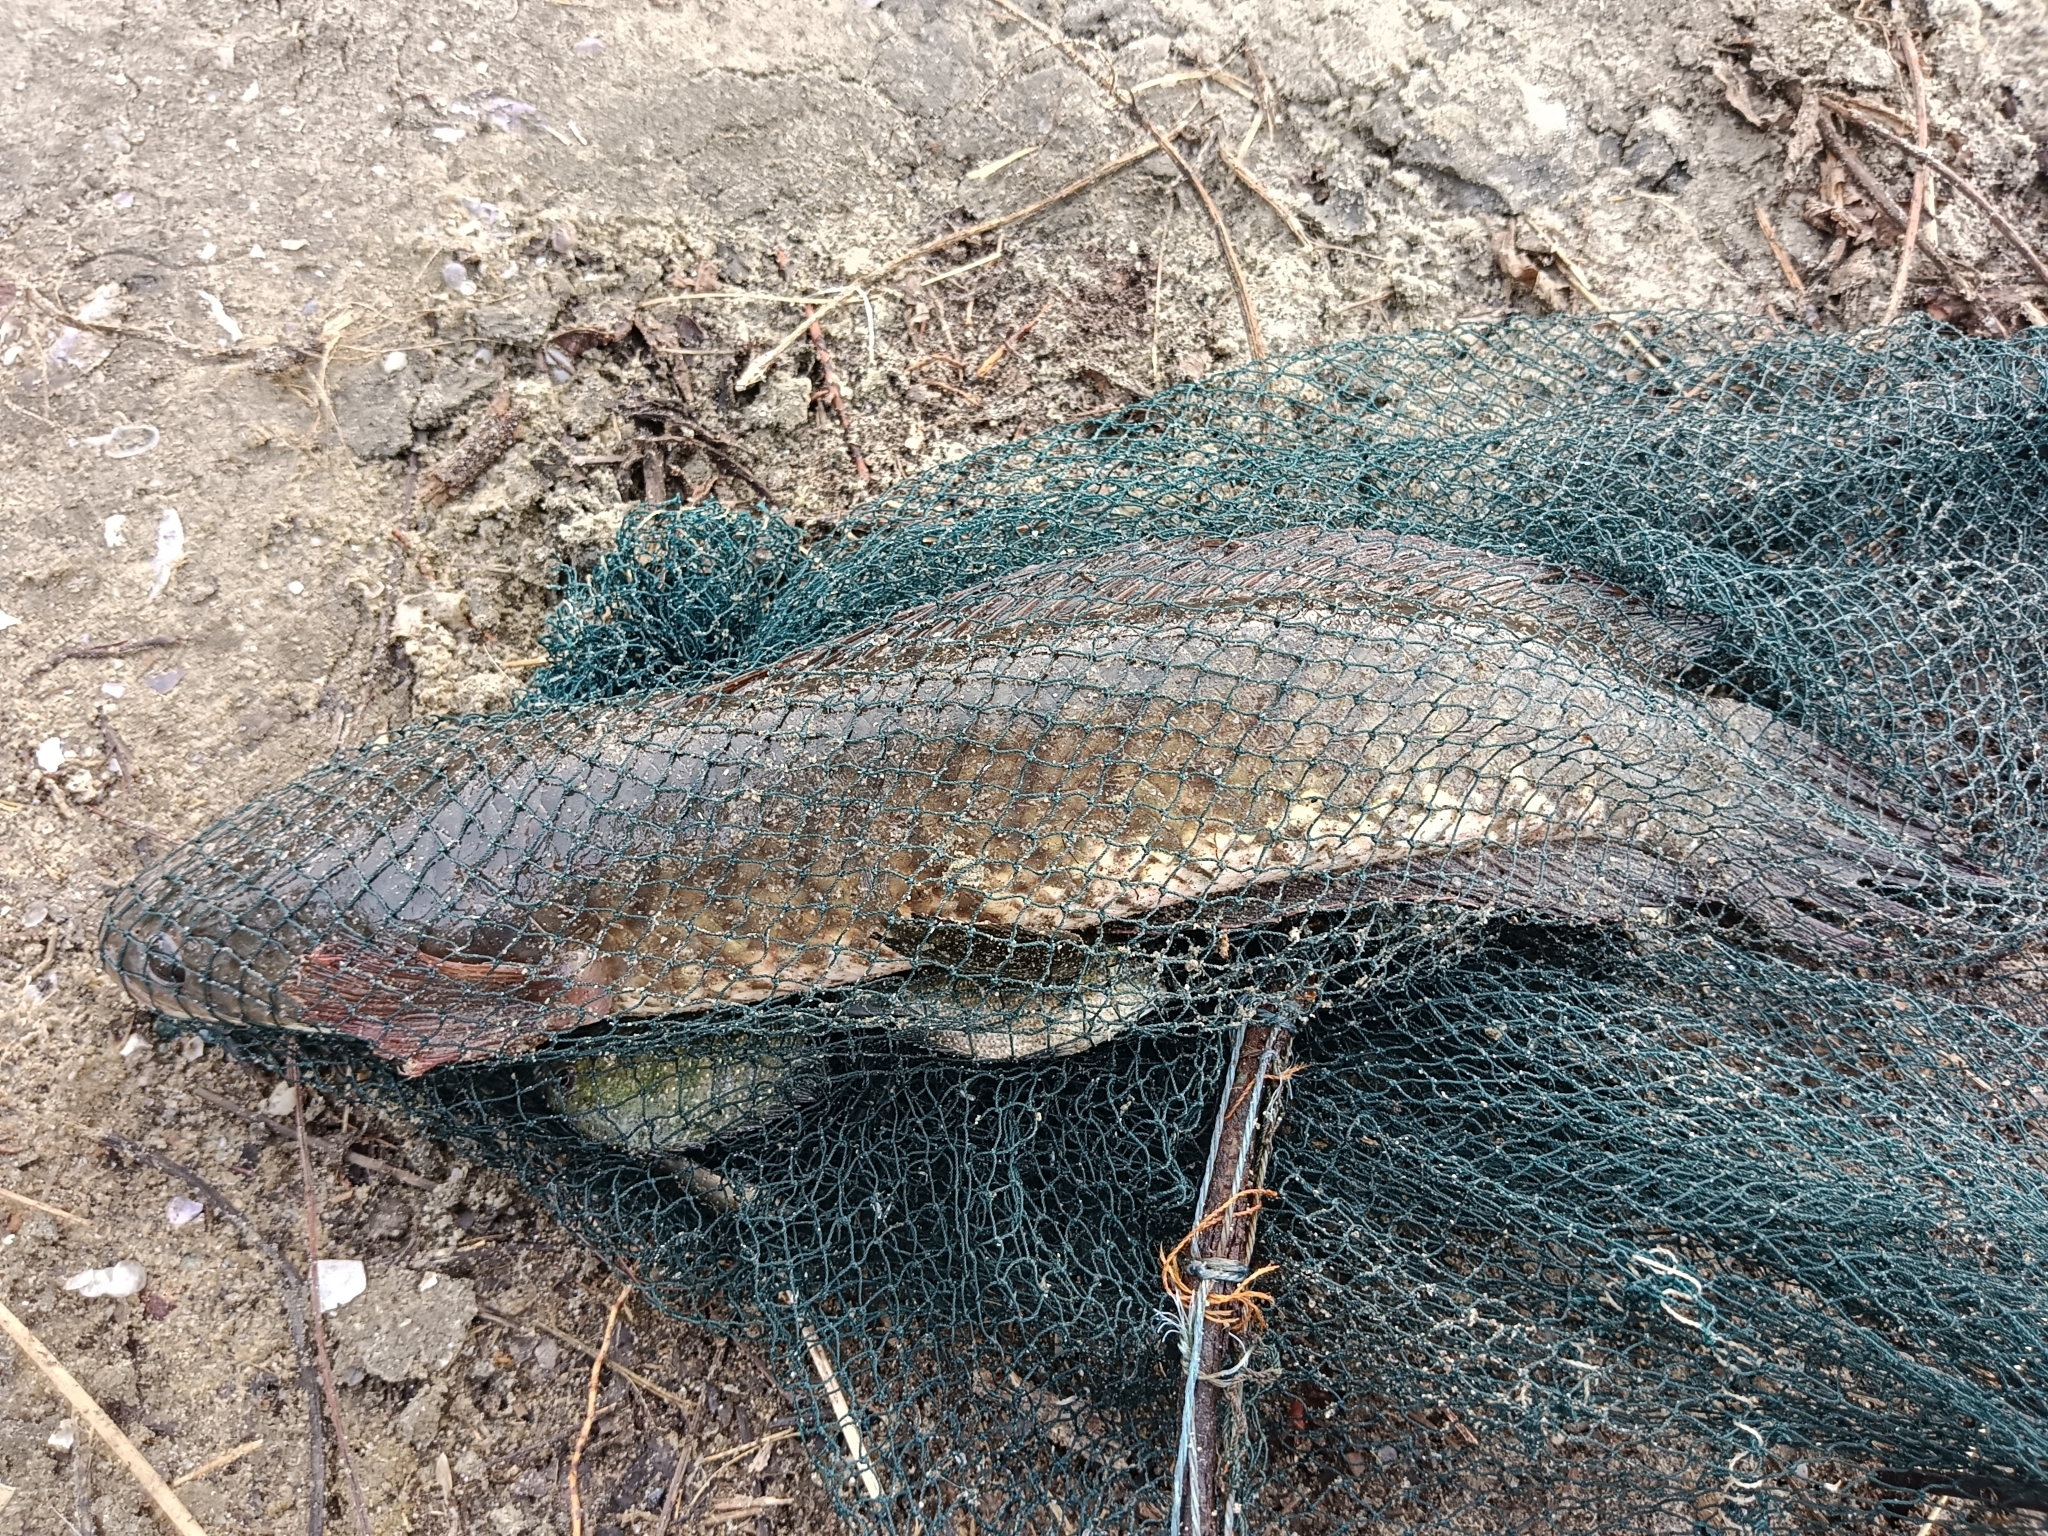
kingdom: Animalia
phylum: Chordata
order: Perciformes
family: Channidae
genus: Channa
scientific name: Channa striata
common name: Striped snakehead
